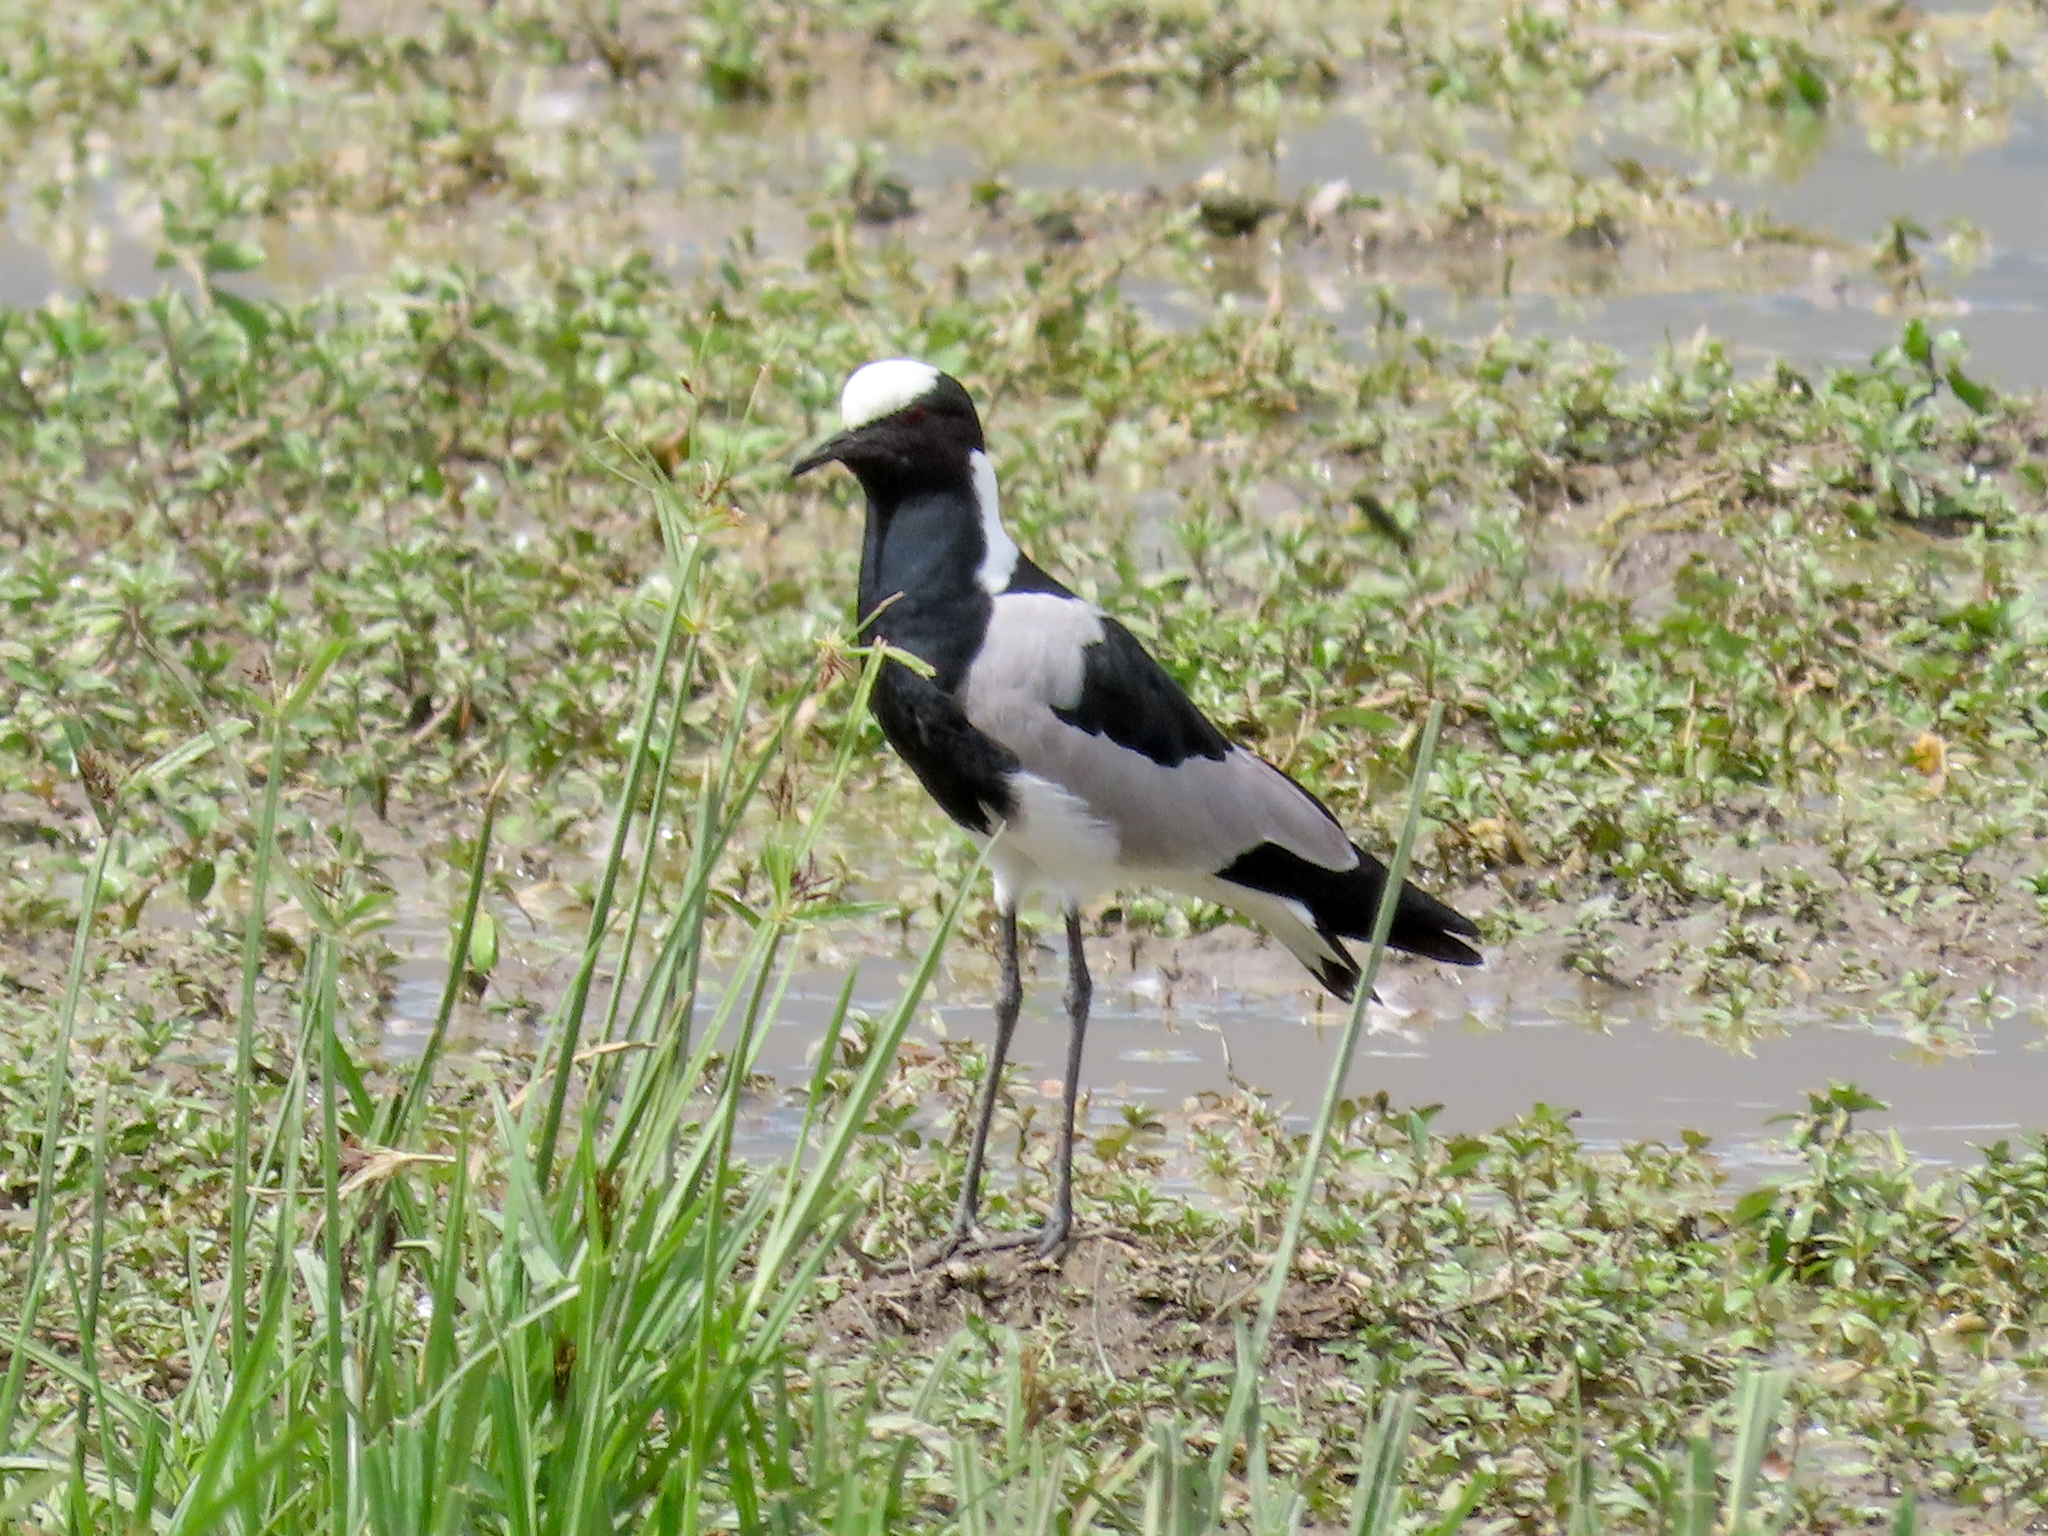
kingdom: Animalia
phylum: Chordata
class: Aves
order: Charadriiformes
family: Charadriidae
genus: Vanellus
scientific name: Vanellus armatus
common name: Blacksmith lapwing
